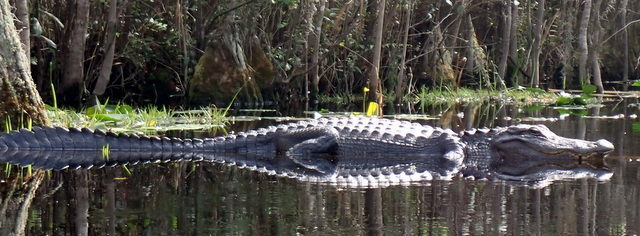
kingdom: Animalia
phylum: Chordata
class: Crocodylia
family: Alligatoridae
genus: Alligator
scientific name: Alligator mississippiensis
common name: American alligator
